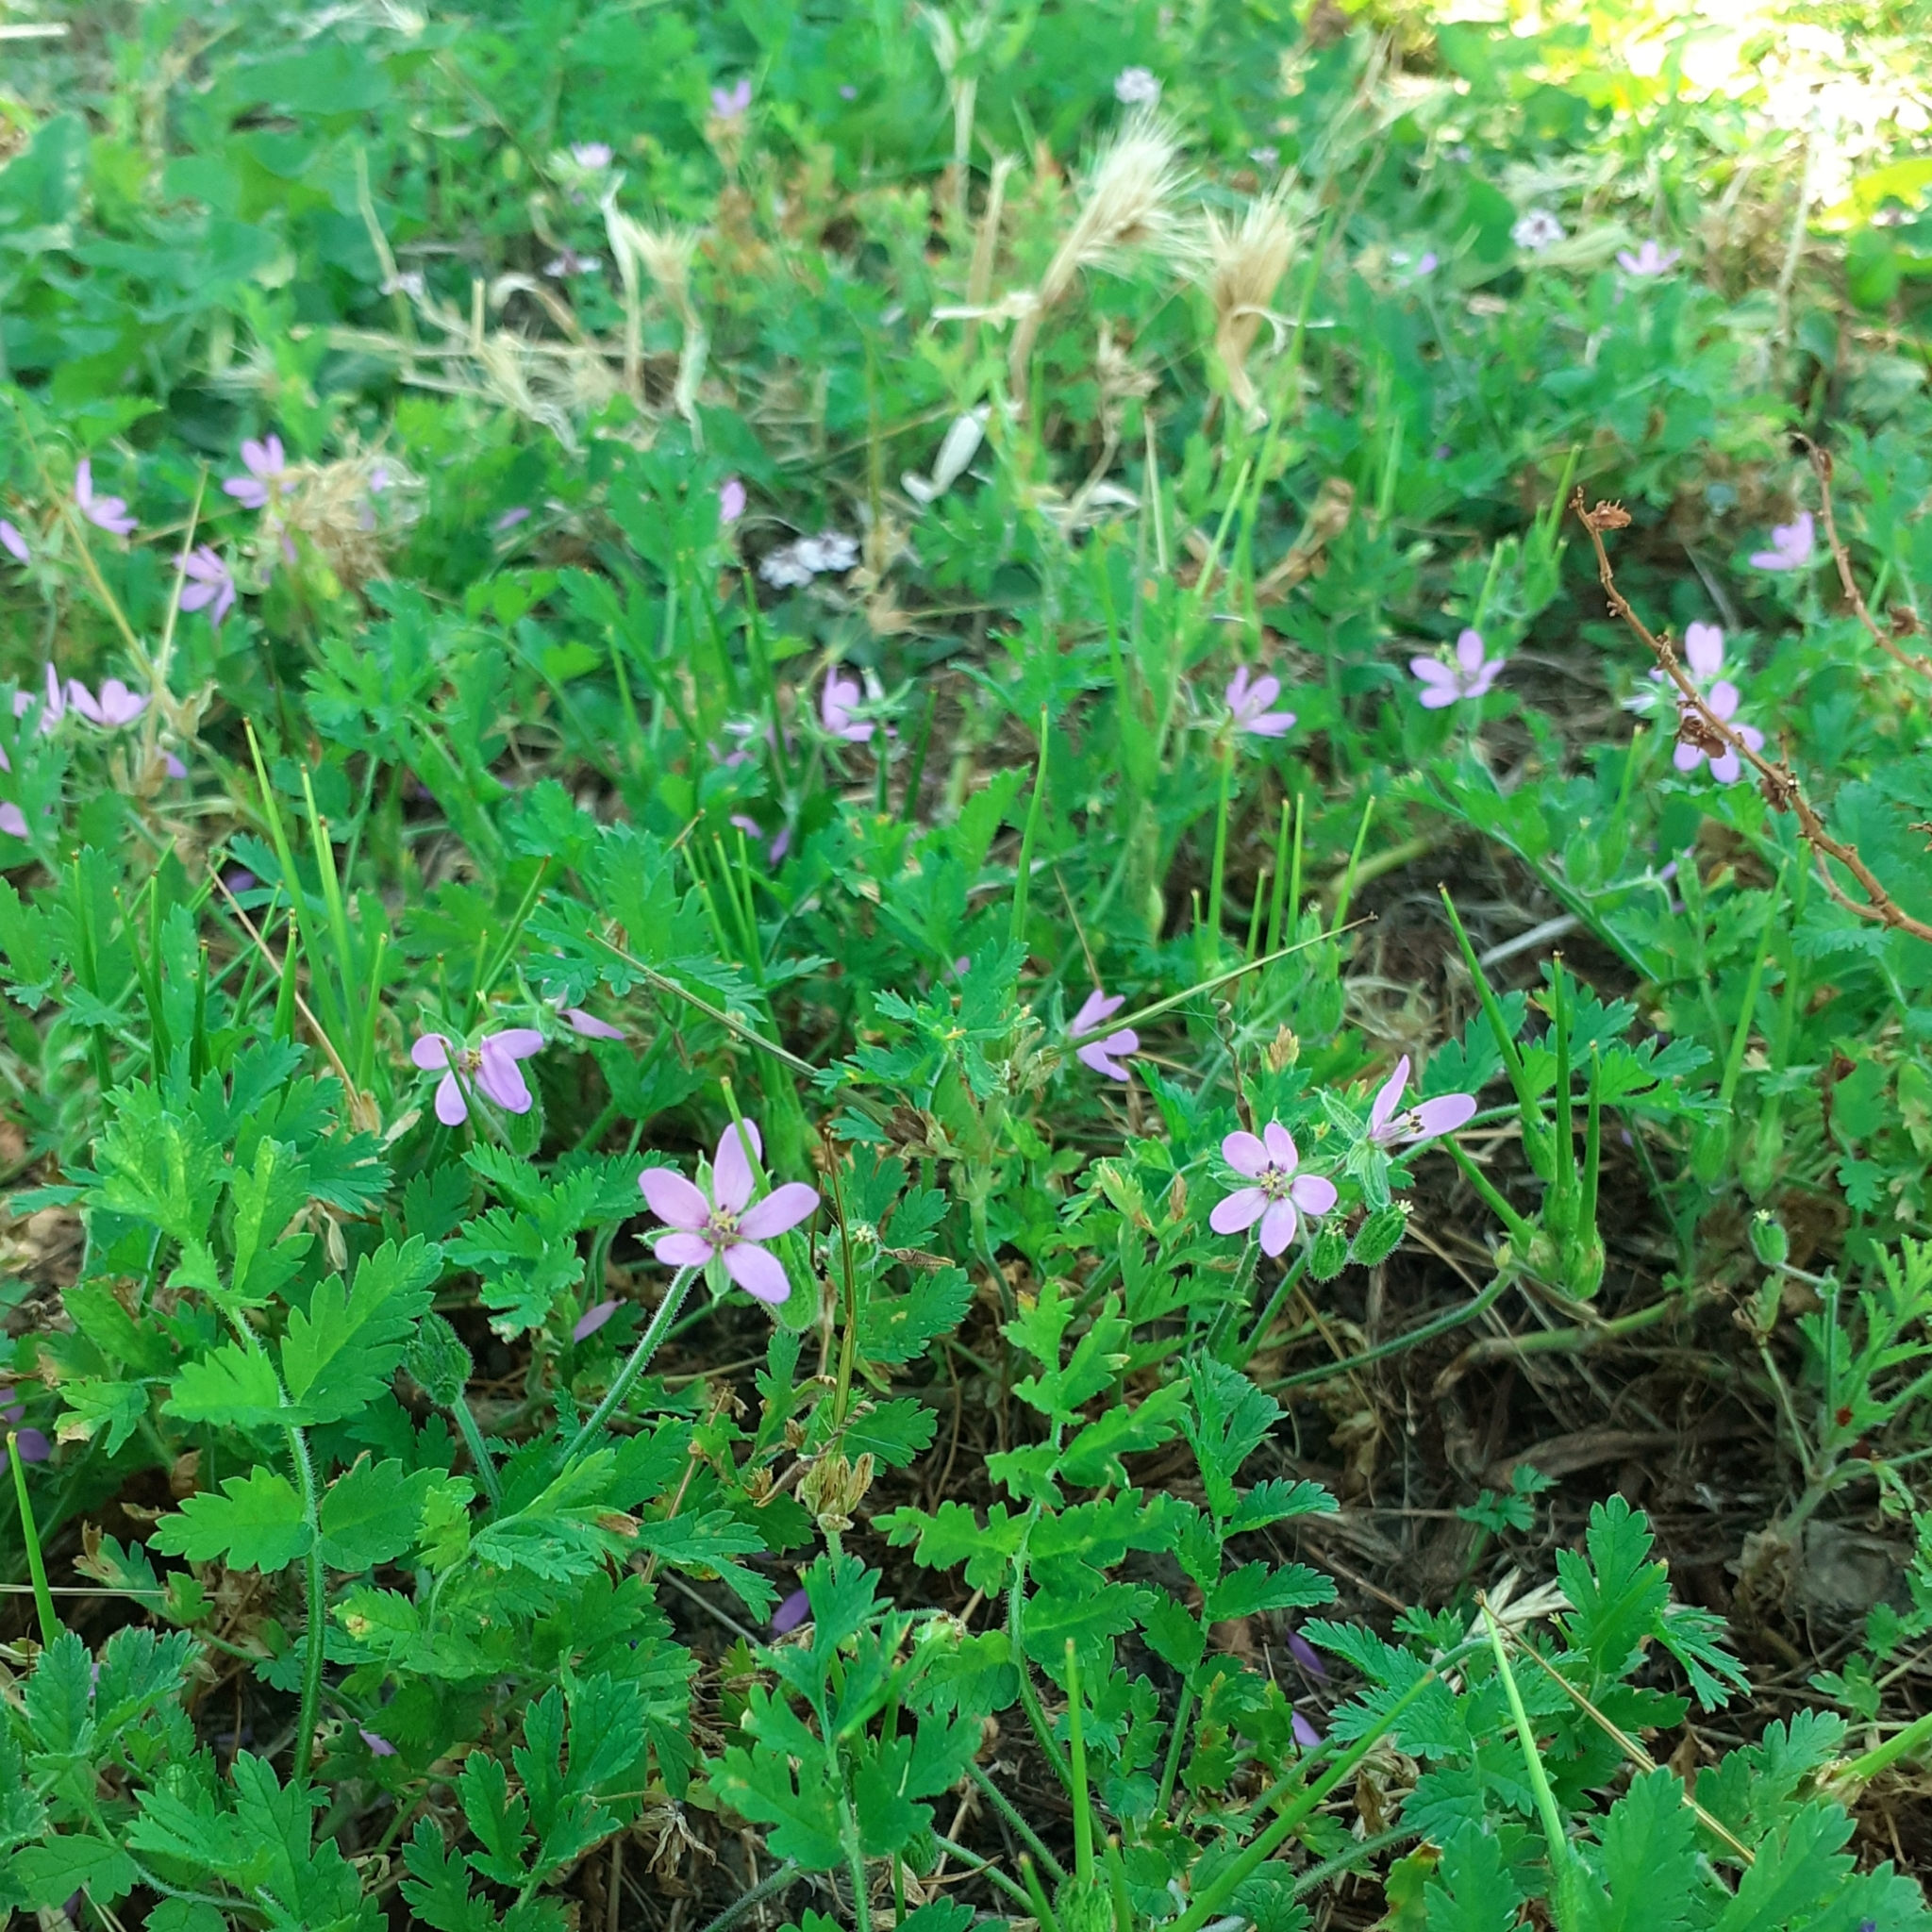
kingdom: Plantae
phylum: Tracheophyta
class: Magnoliopsida
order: Geraniales
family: Geraniaceae
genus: Erodium
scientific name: Erodium moschatum
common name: Musk stork's-bill
